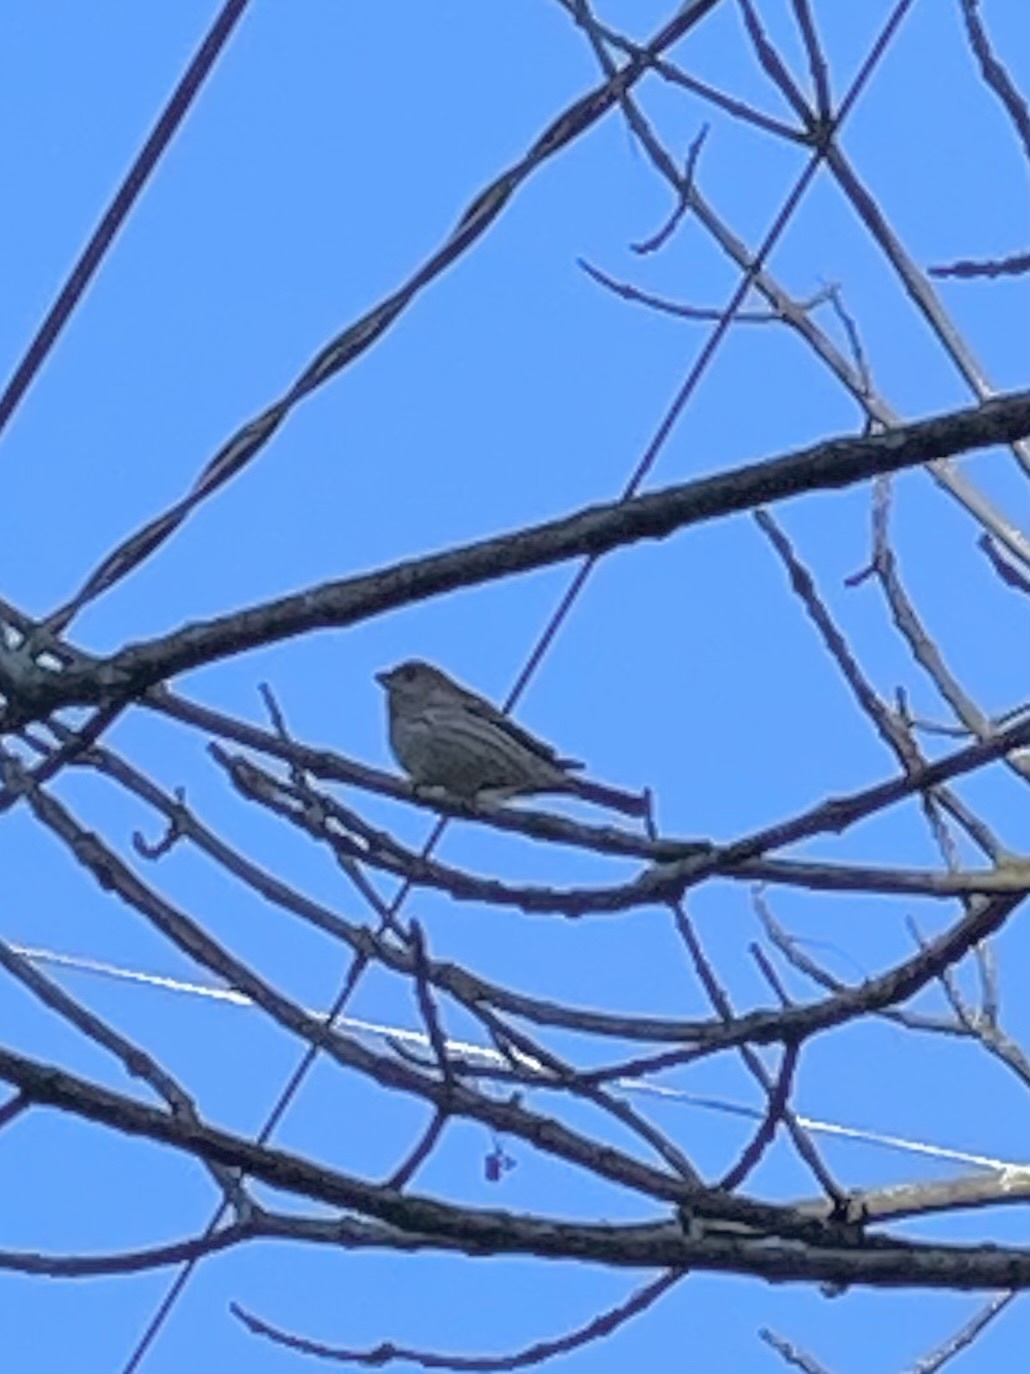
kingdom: Animalia
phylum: Chordata
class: Aves
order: Passeriformes
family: Fringillidae
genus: Haemorhous
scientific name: Haemorhous mexicanus
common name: House finch
